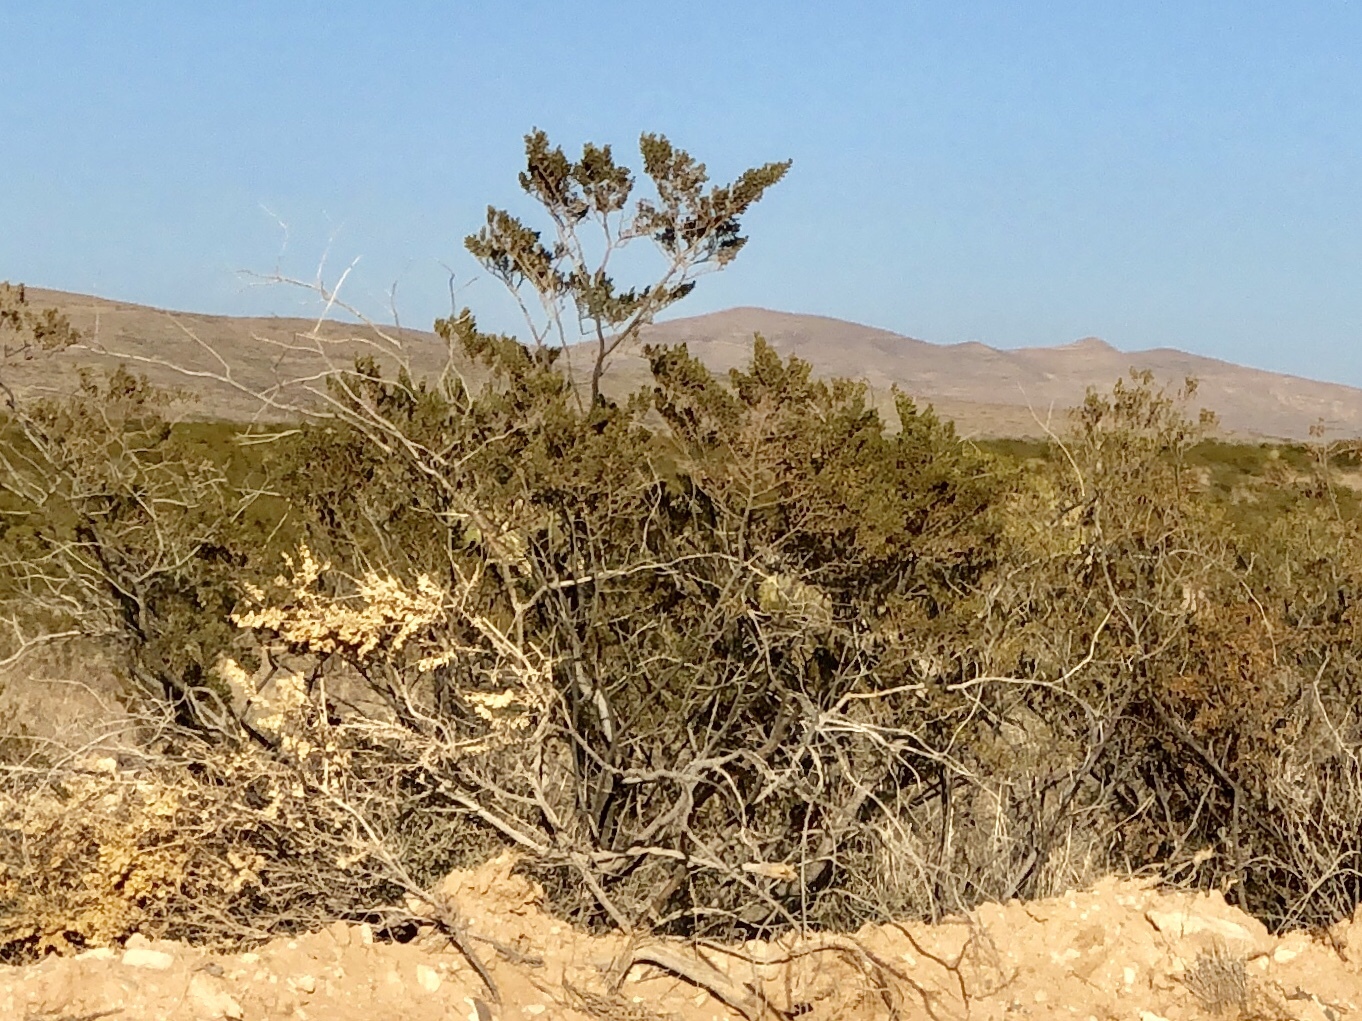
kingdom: Plantae
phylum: Tracheophyta
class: Magnoliopsida
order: Zygophyllales
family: Zygophyllaceae
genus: Larrea
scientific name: Larrea tridentata
